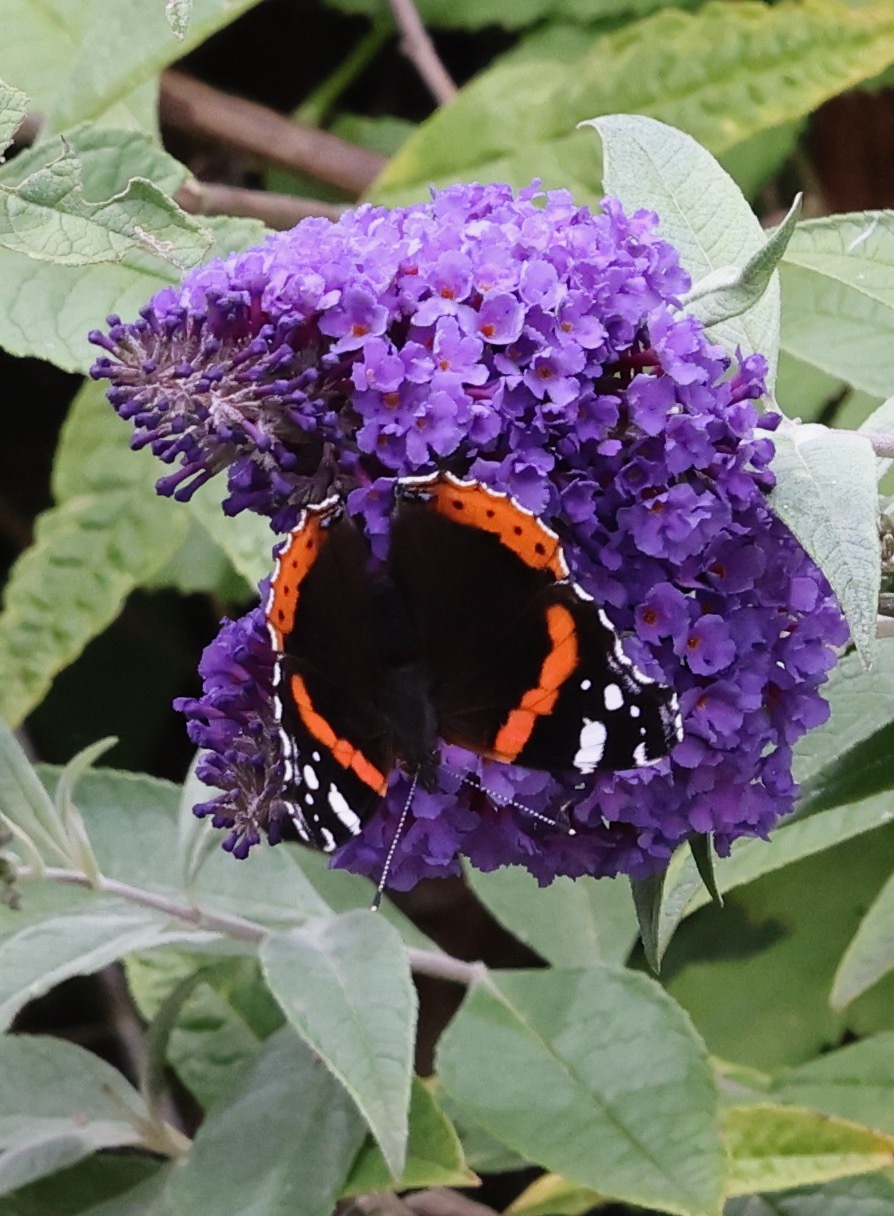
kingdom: Animalia
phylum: Arthropoda
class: Insecta
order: Lepidoptera
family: Nymphalidae
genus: Vanessa
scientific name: Vanessa atalanta
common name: Red admiral
